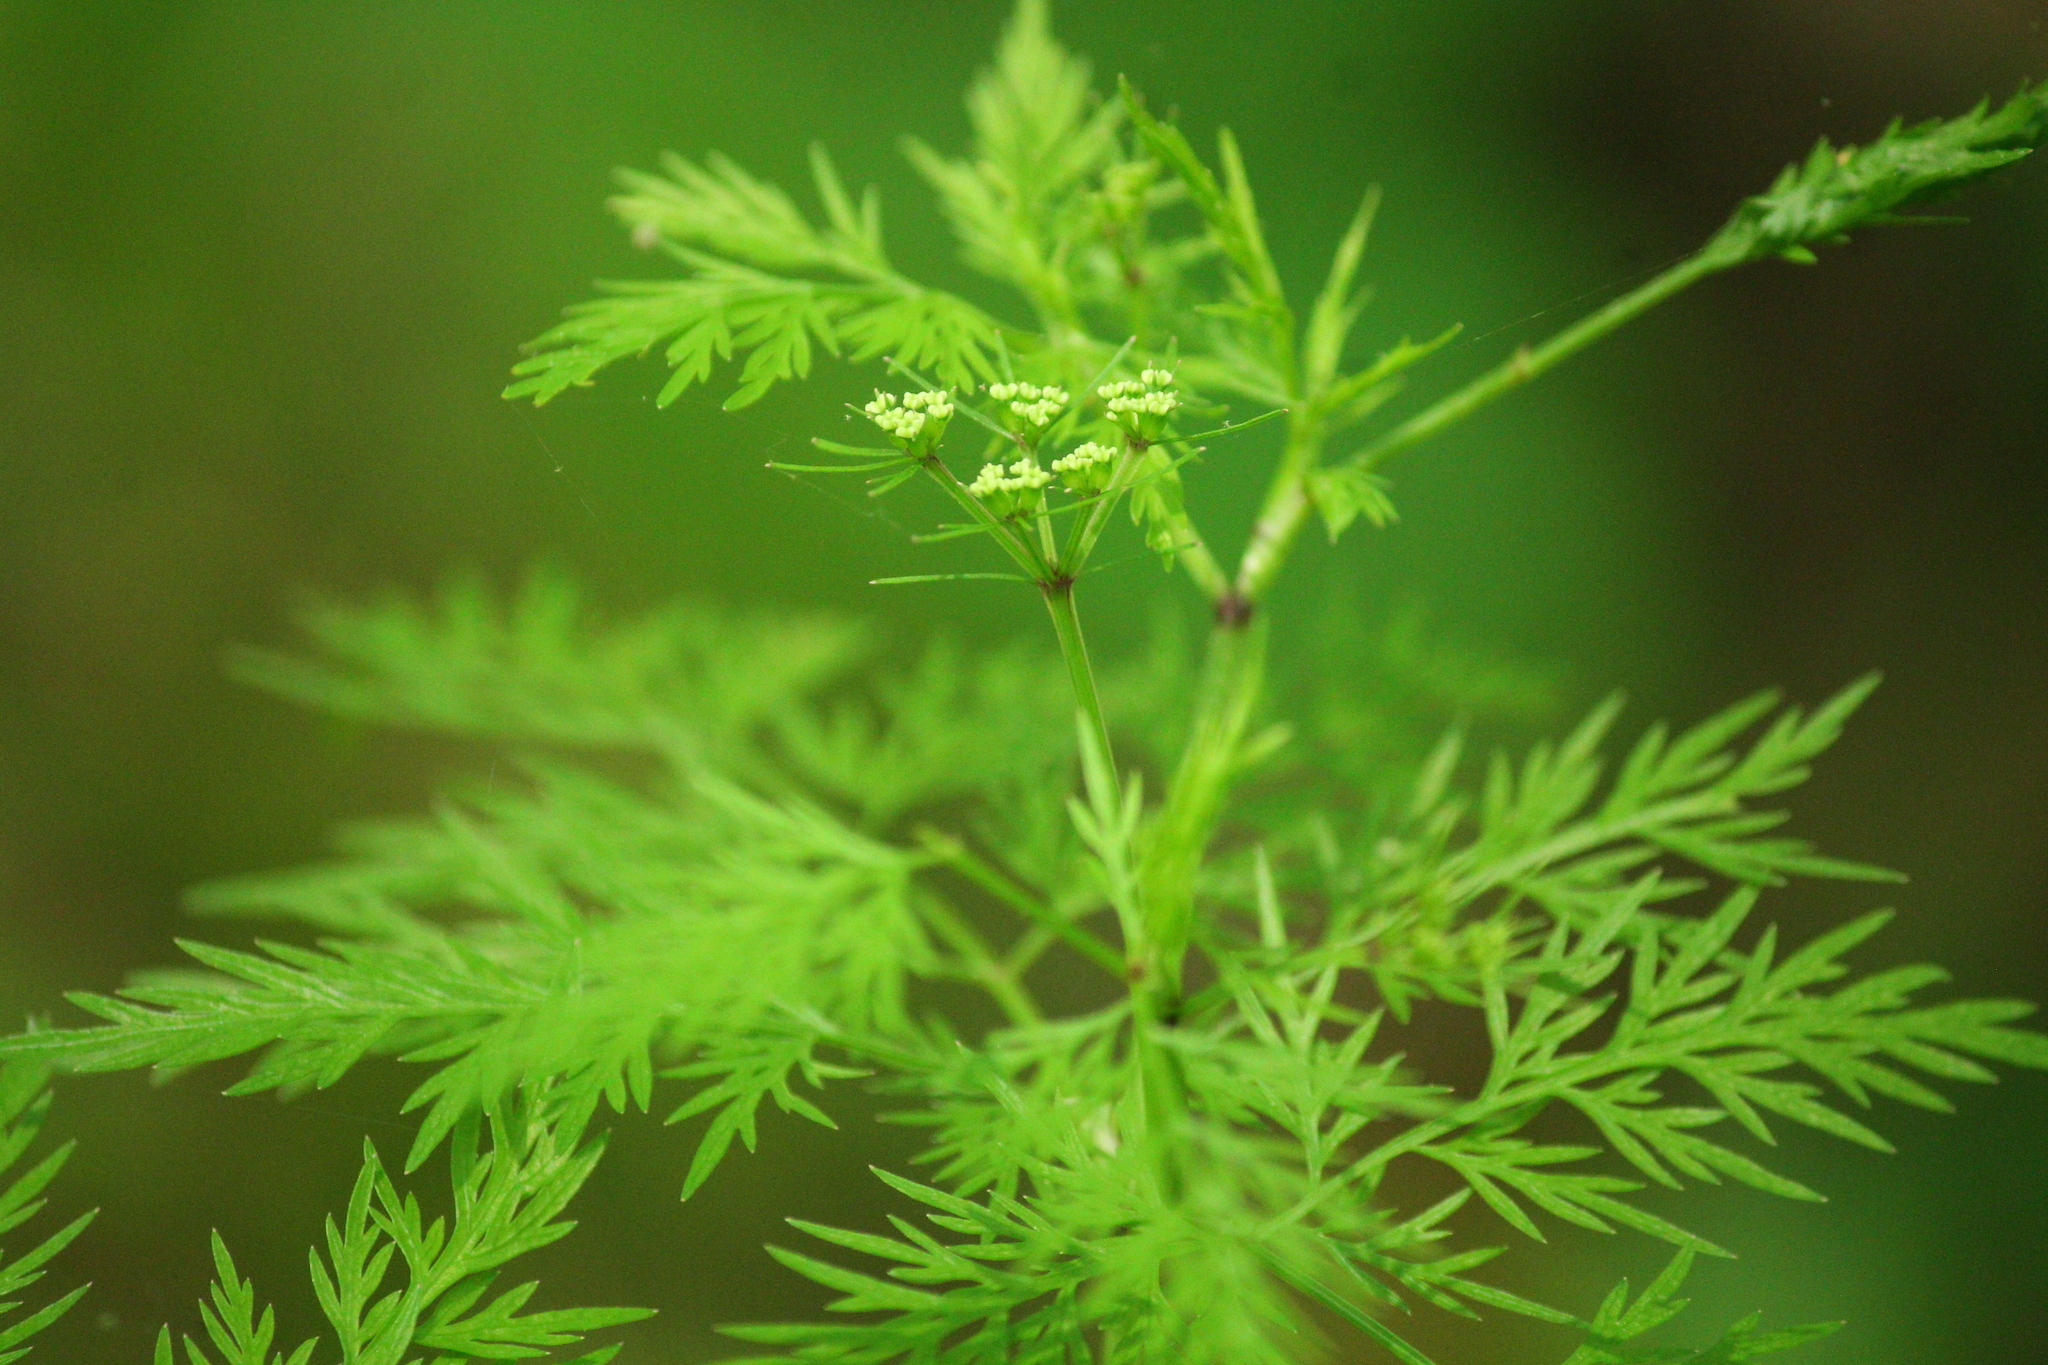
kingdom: Plantae
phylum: Tracheophyta
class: Magnoliopsida
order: Apiales
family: Apiaceae
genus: Trepocarpus
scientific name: Trepocarpus aethusae
